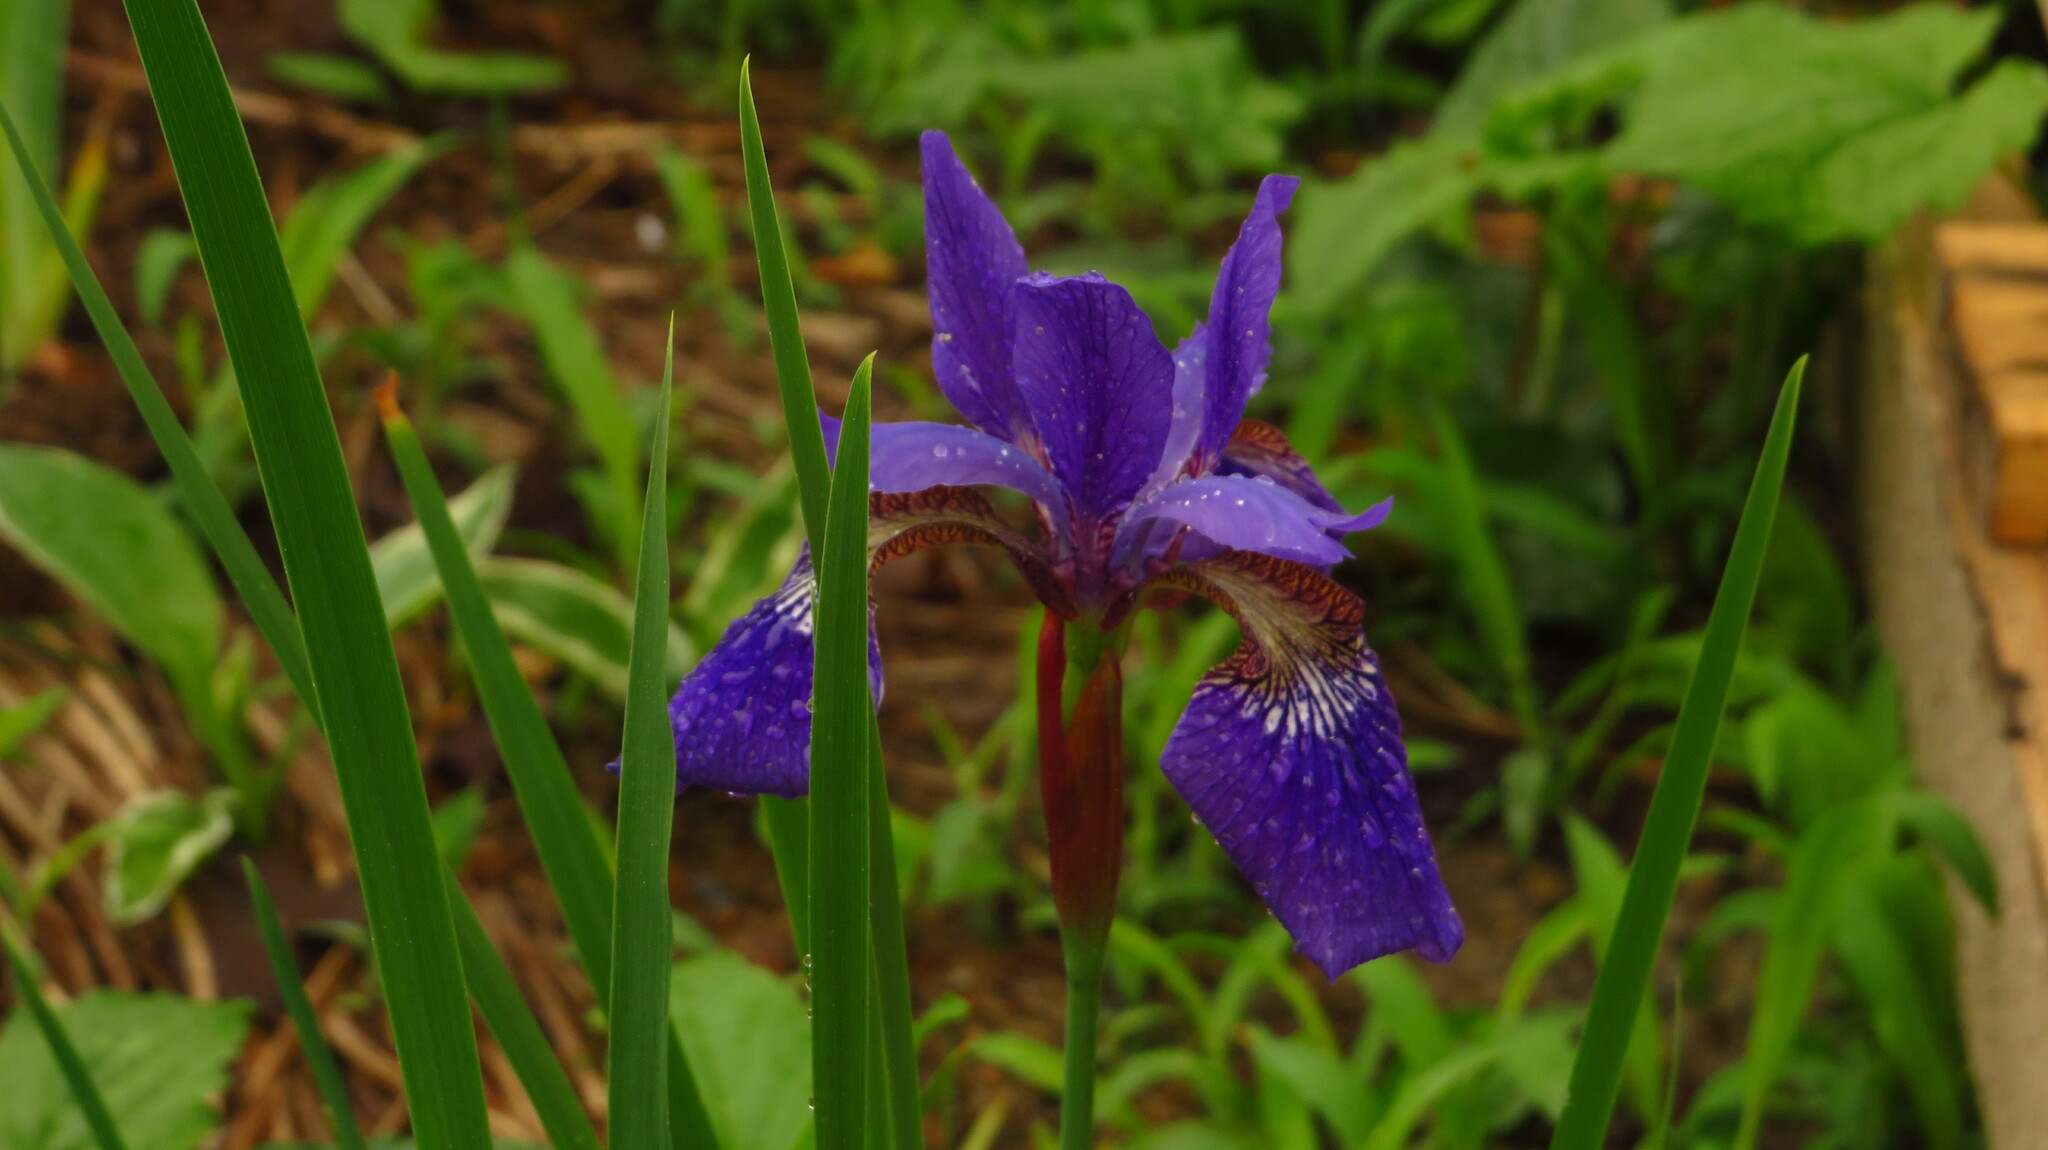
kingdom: Plantae
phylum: Tracheophyta
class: Liliopsida
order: Asparagales
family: Iridaceae
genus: Iris
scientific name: Iris sanguinea
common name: Blood iris
